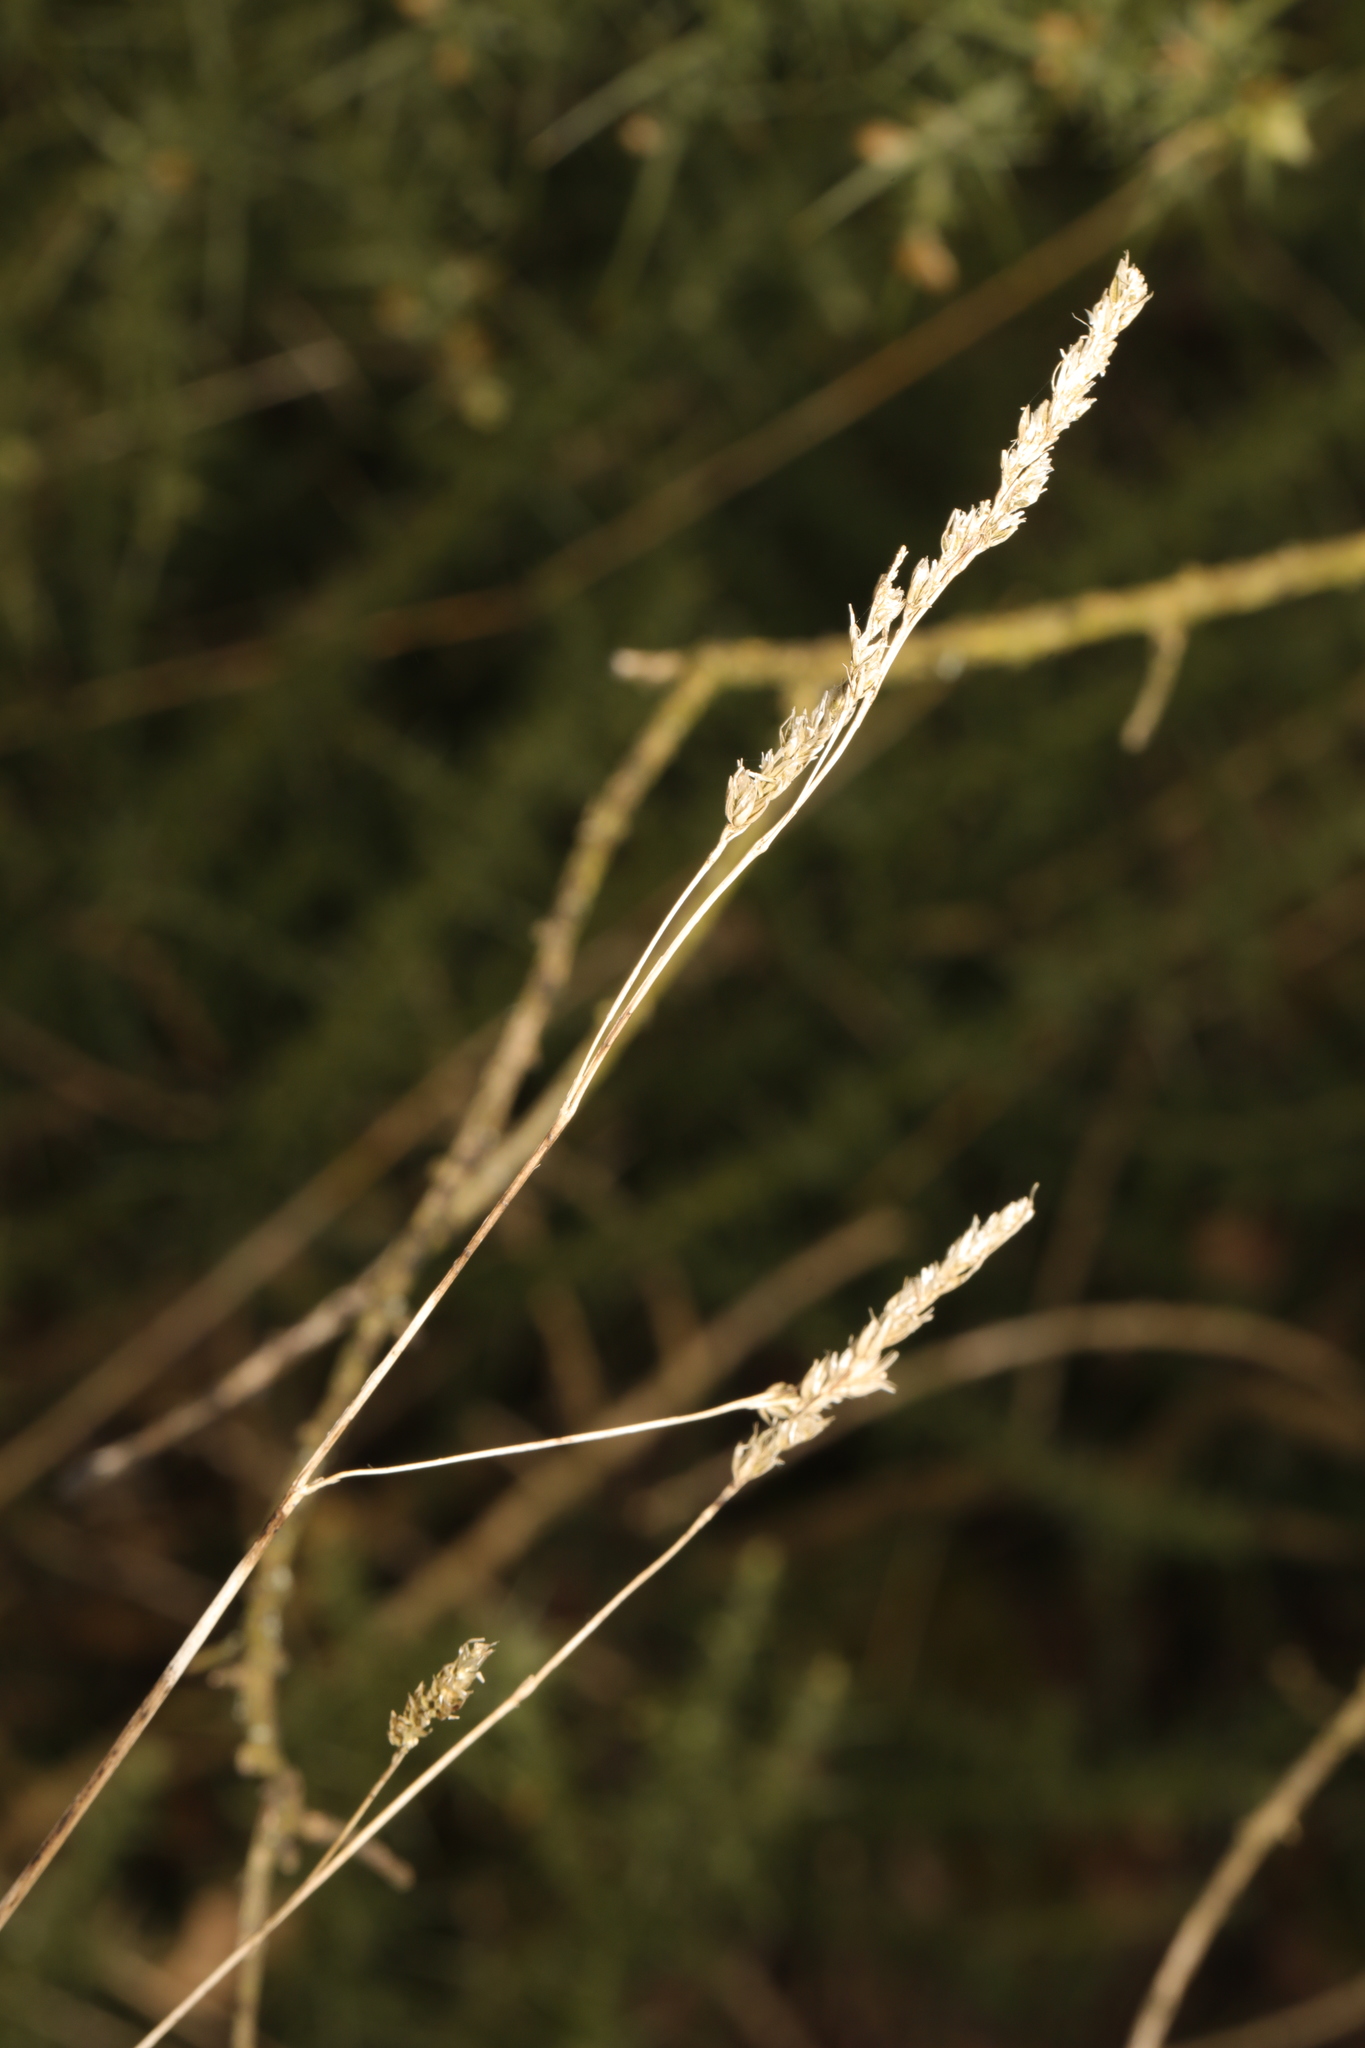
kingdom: Plantae
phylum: Tracheophyta
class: Liliopsida
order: Poales
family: Poaceae
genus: Dactylis
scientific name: Dactylis glomerata
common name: Orchardgrass
